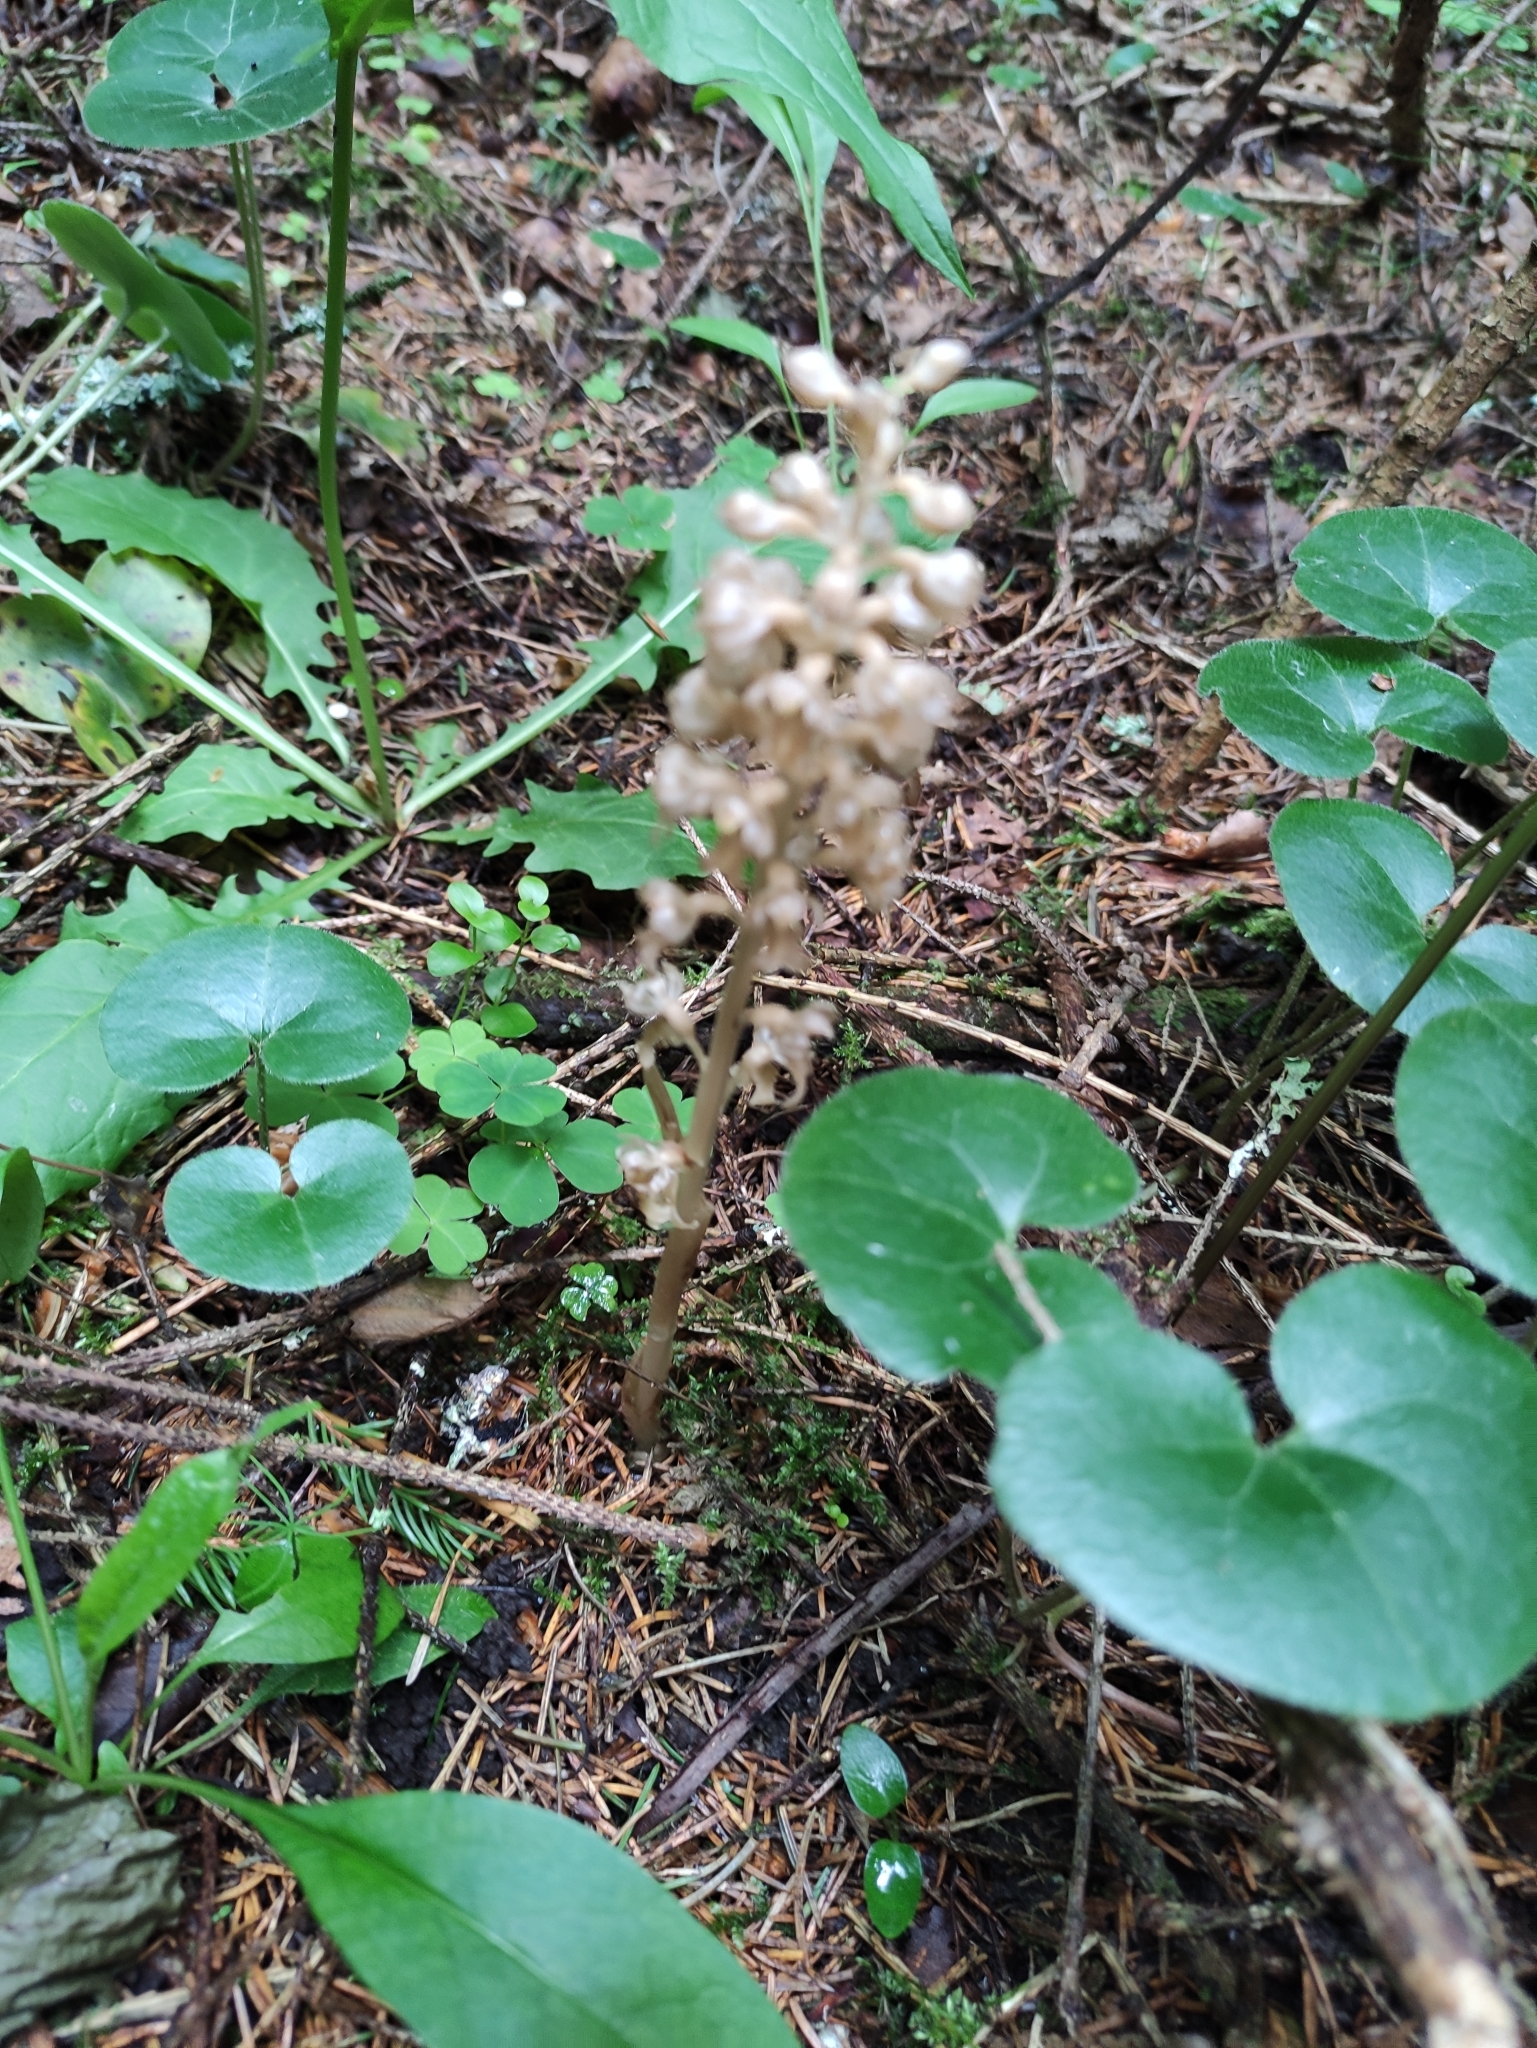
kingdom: Plantae
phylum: Tracheophyta
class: Liliopsida
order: Asparagales
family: Orchidaceae
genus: Neottia
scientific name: Neottia nidus-avis
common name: Bird's-nest orchid
